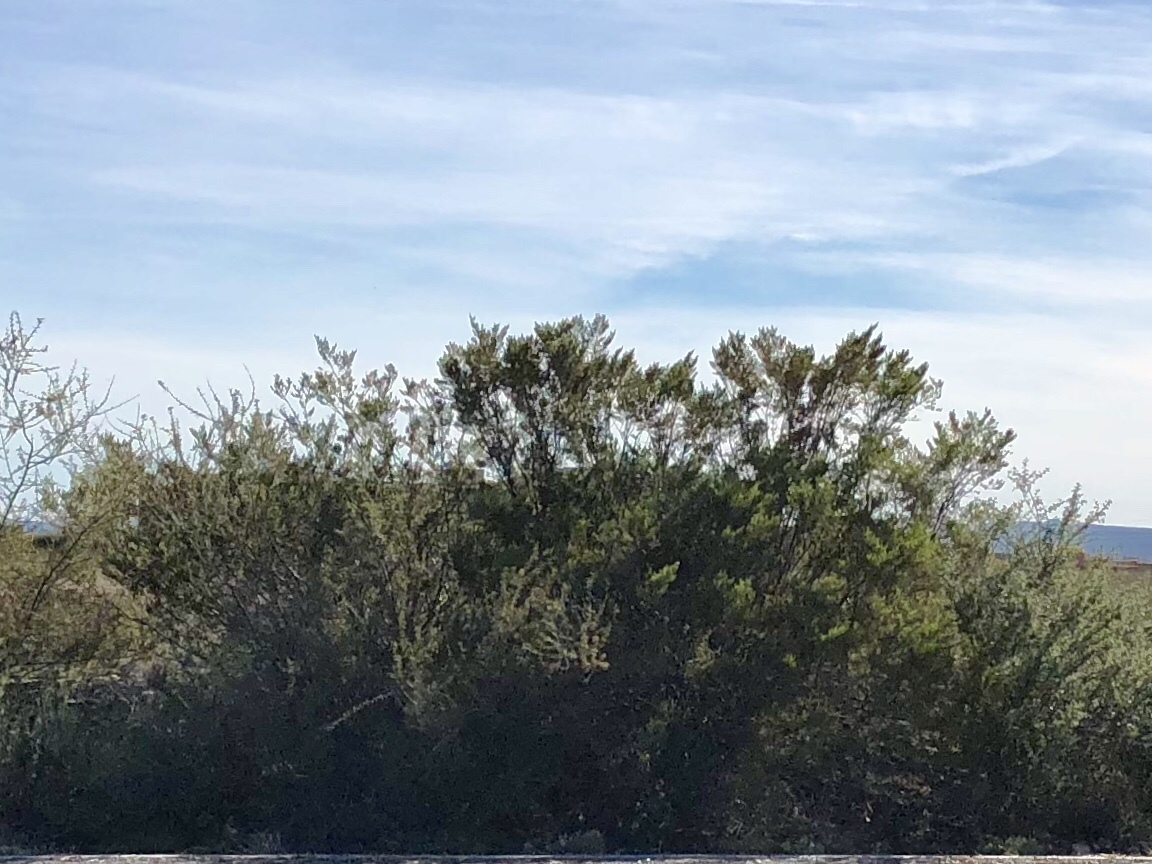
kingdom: Plantae
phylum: Tracheophyta
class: Magnoliopsida
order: Zygophyllales
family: Zygophyllaceae
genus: Larrea
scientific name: Larrea tridentata
